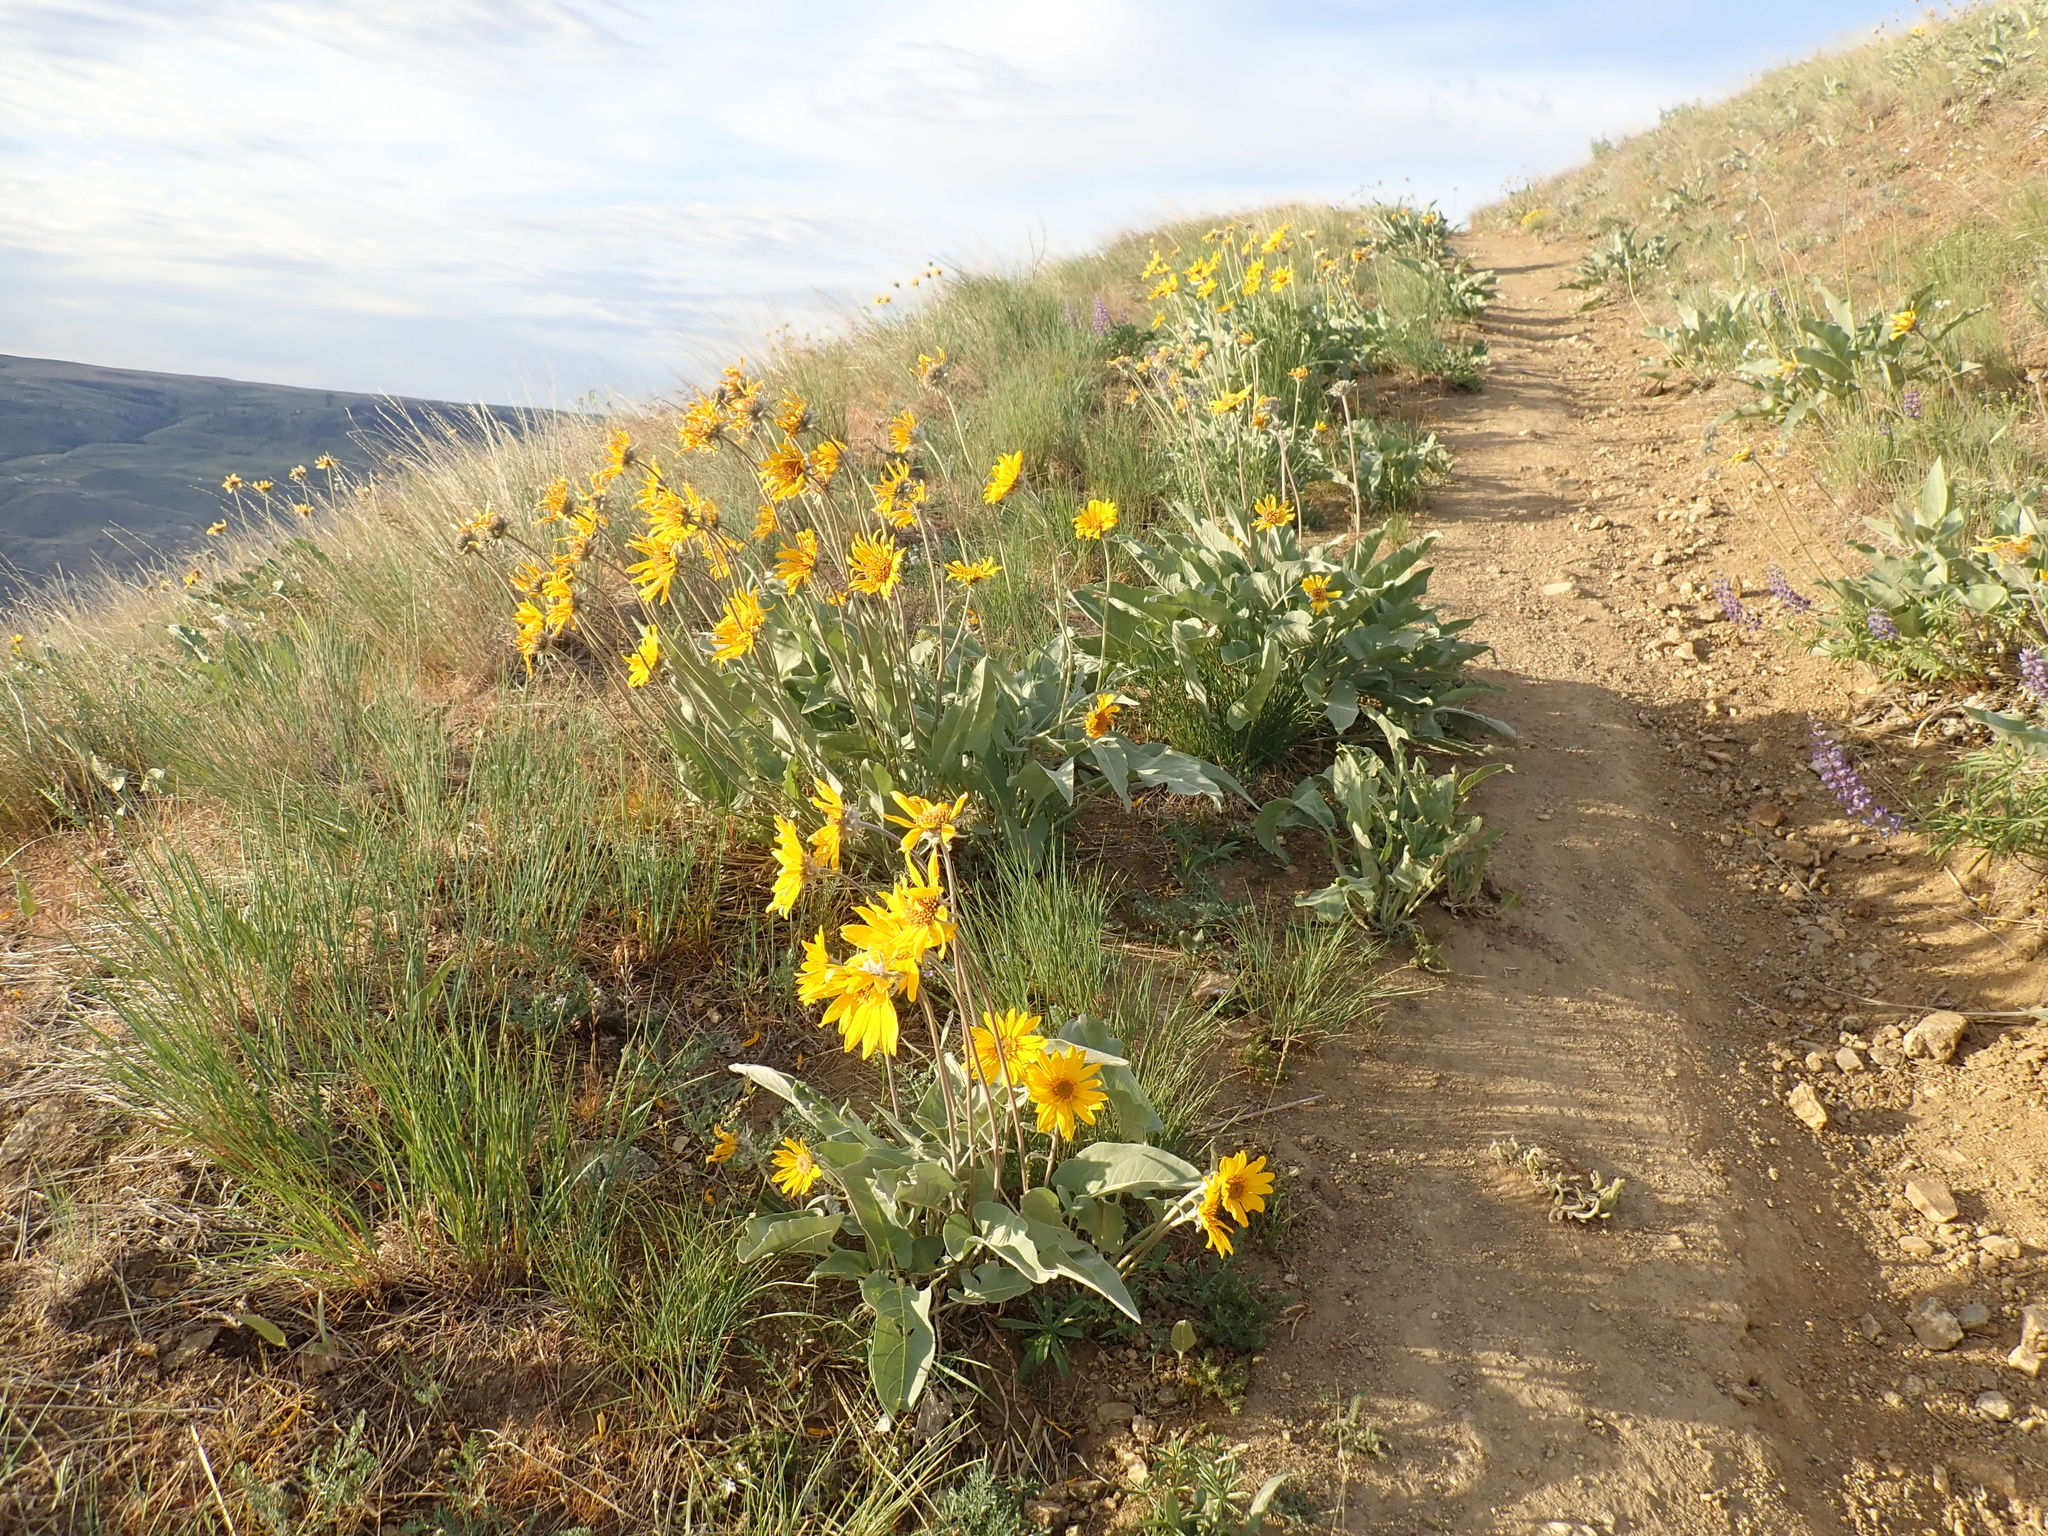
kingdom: Plantae
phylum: Tracheophyta
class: Magnoliopsida
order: Asterales
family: Asteraceae
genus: Wyethia
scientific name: Wyethia sagittata
